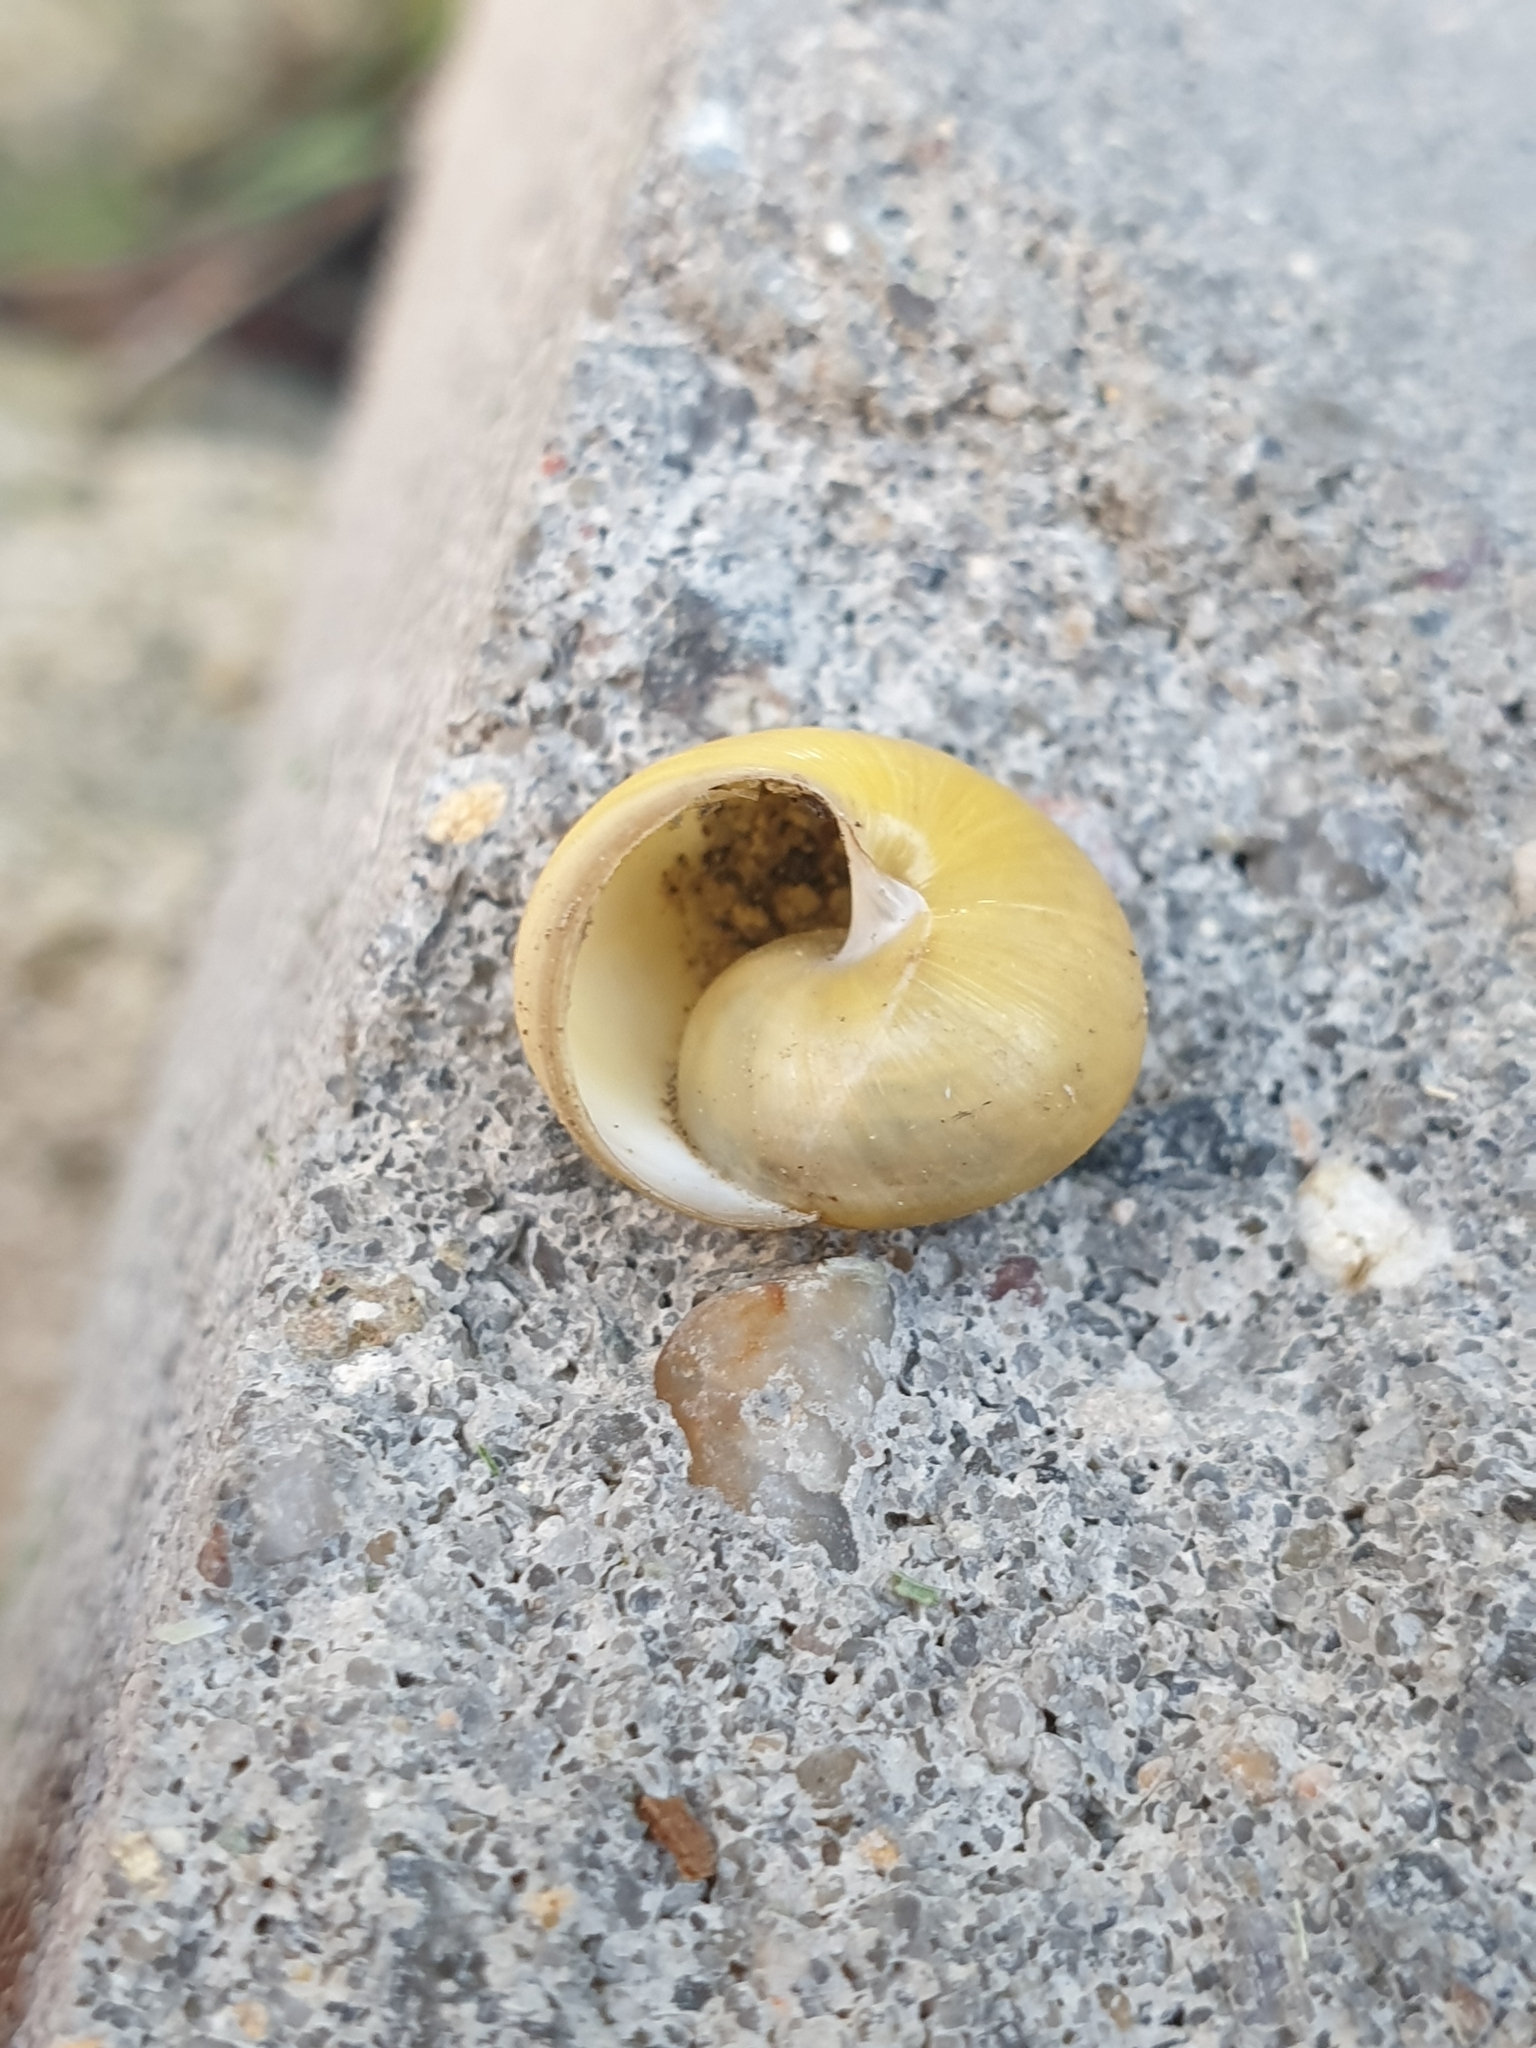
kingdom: Animalia
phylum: Mollusca
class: Gastropoda
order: Stylommatophora
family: Helicidae
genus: Cepaea
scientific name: Cepaea
